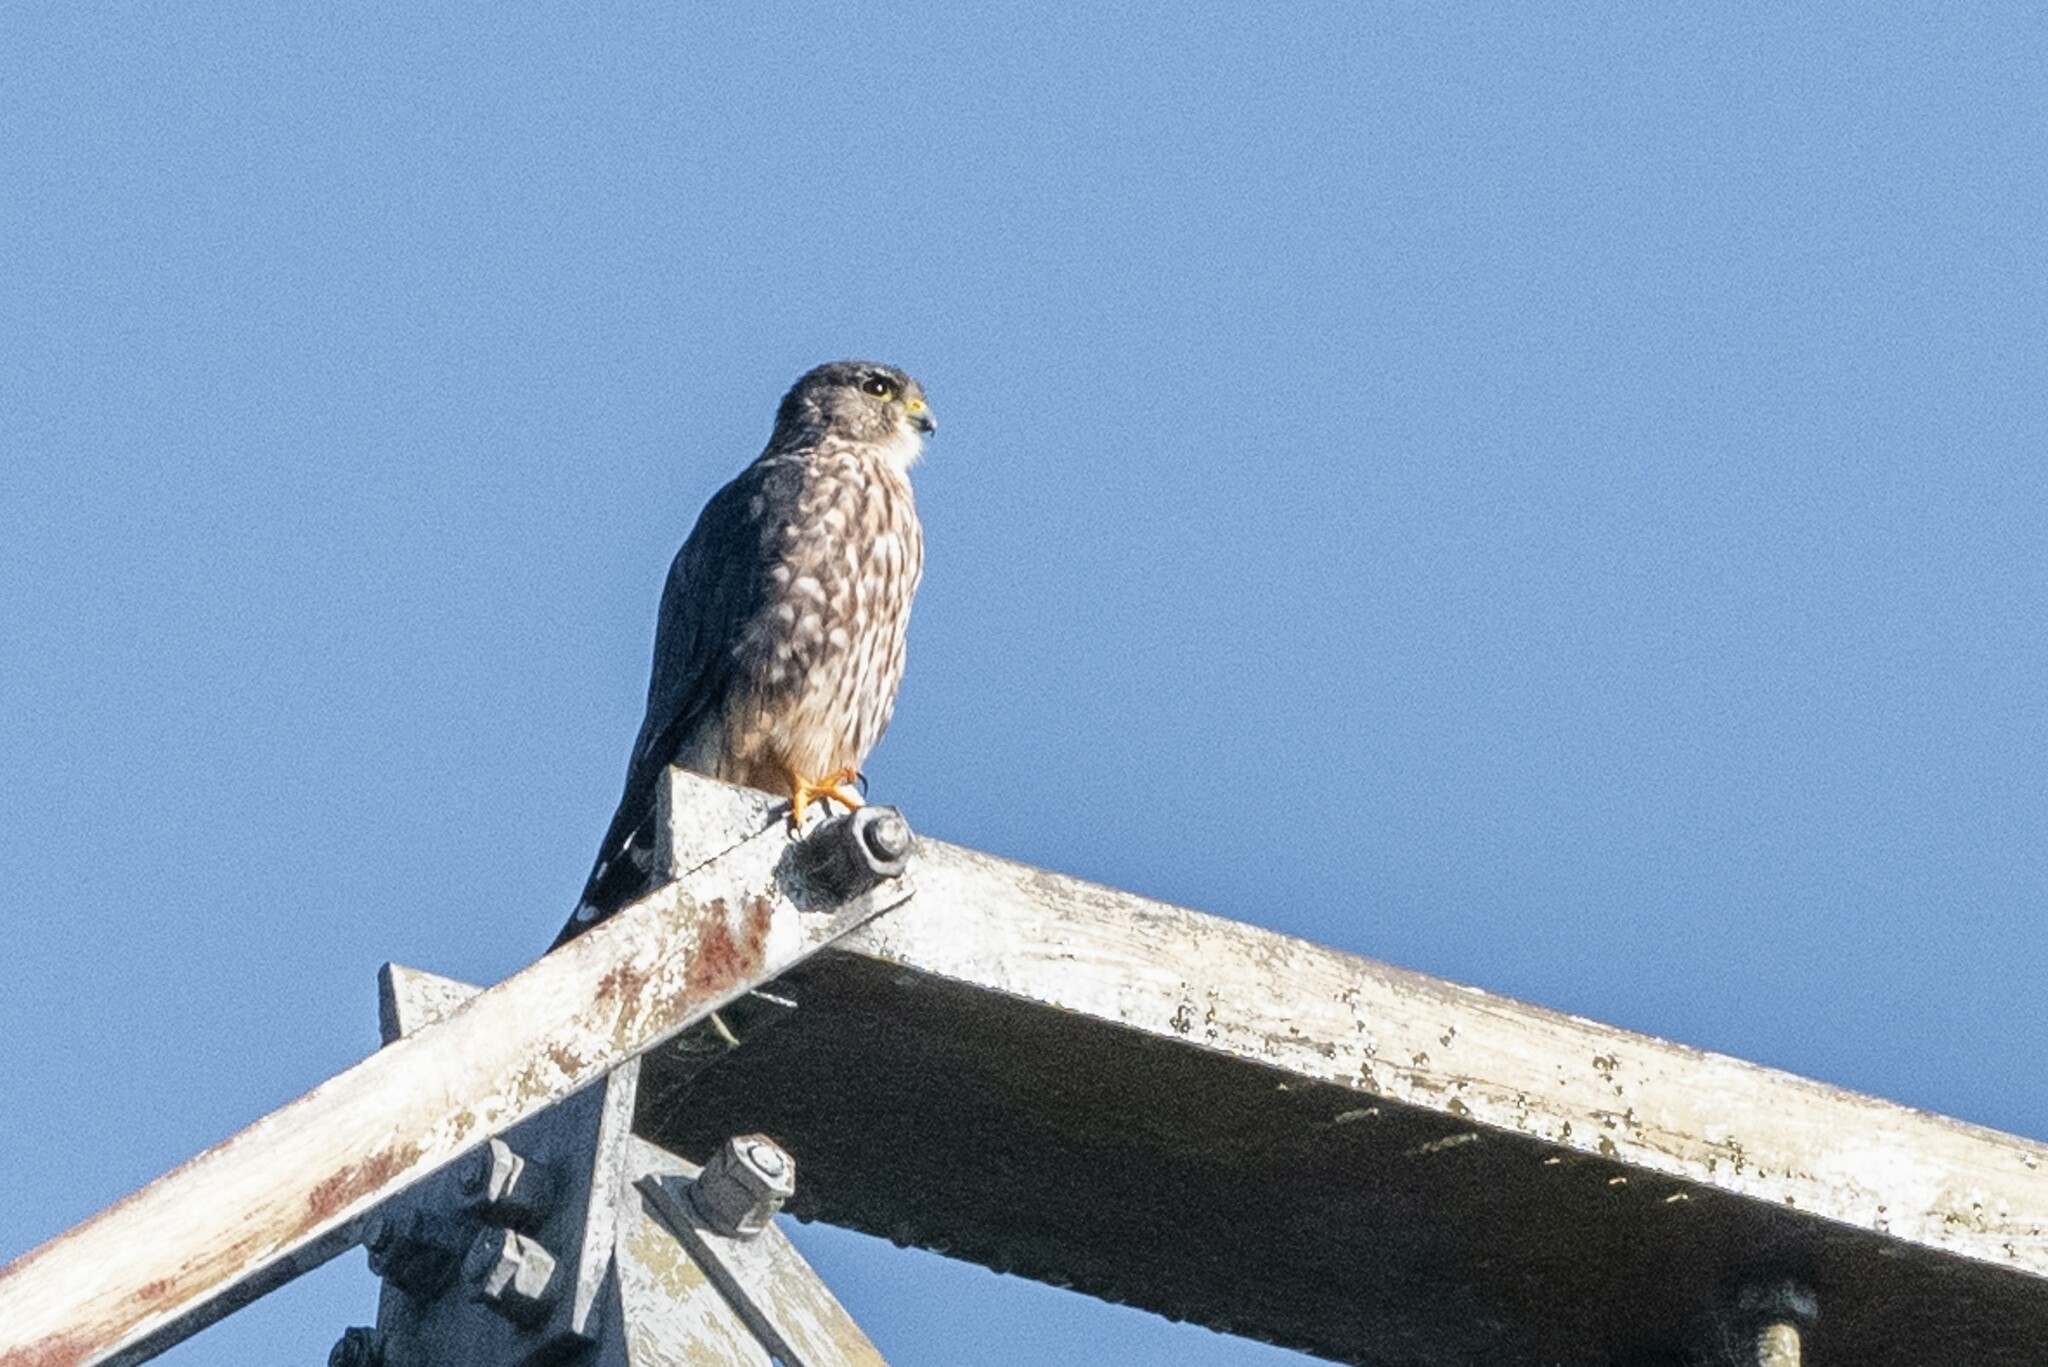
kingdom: Animalia
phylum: Chordata
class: Aves
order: Falconiformes
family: Falconidae
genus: Falco
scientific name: Falco columbarius
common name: Merlin
